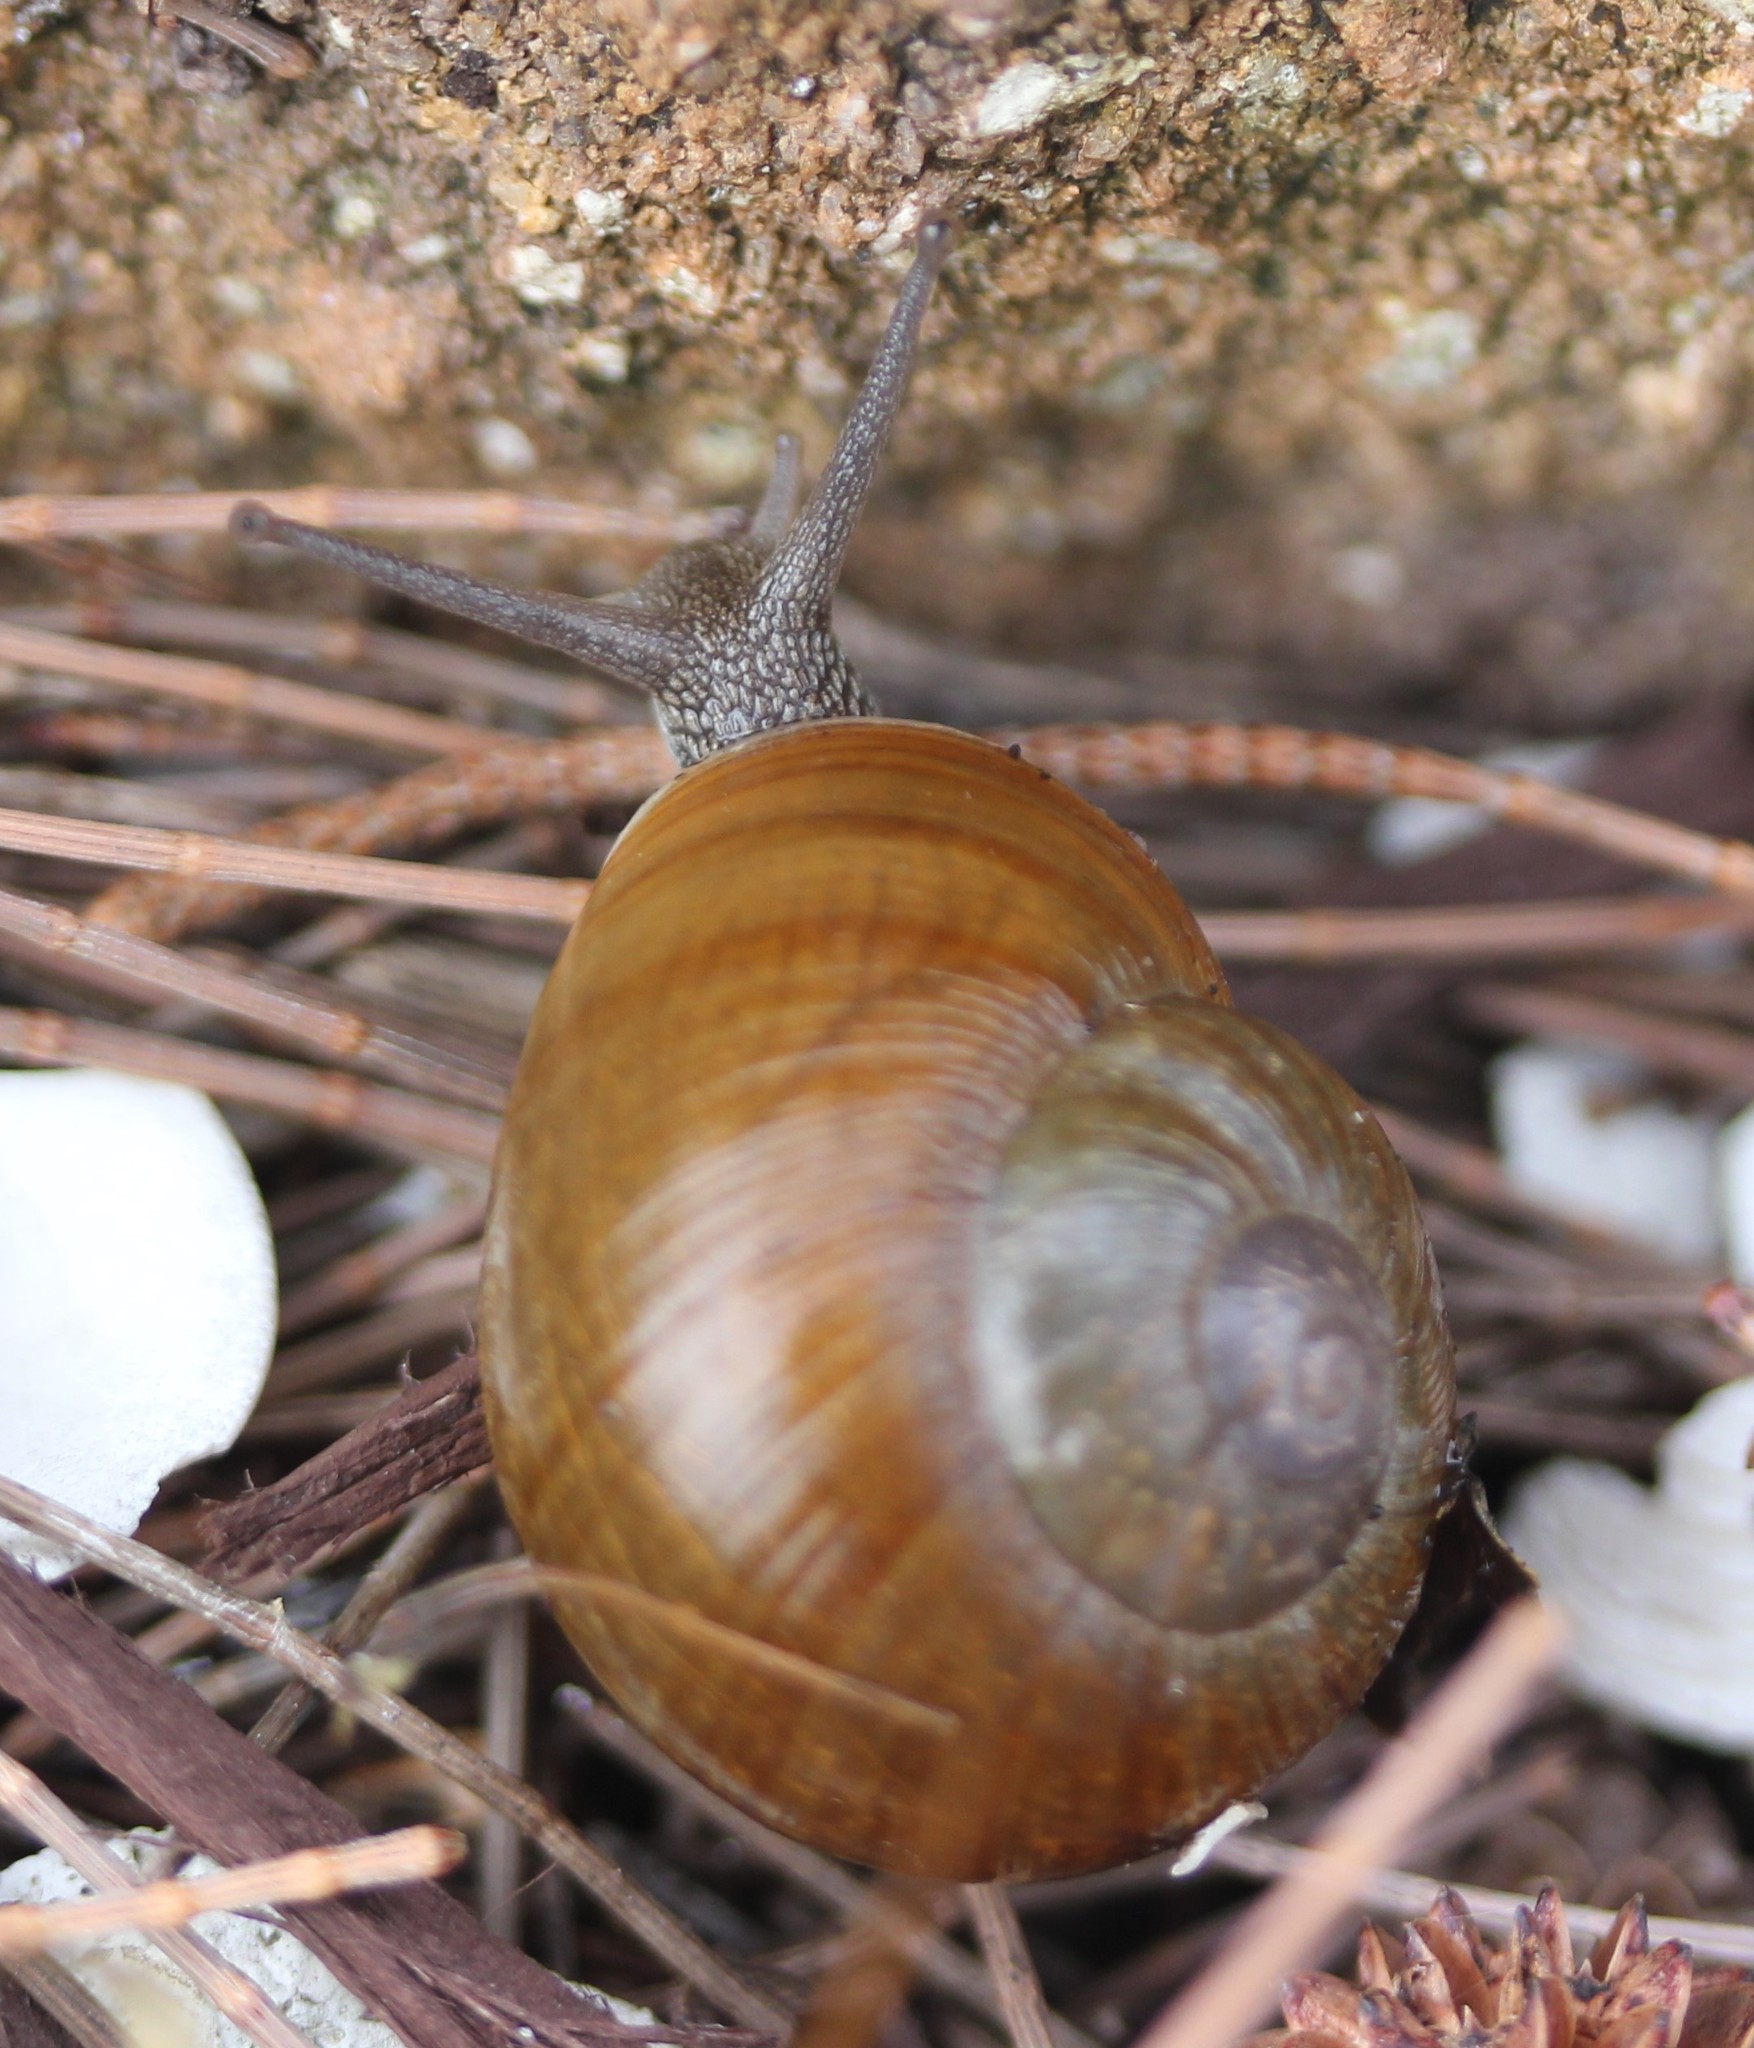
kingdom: Animalia
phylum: Mollusca
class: Gastropoda
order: Stylommatophora
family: Zachrysiidae
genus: Zachrysia
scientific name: Zachrysia provisoria
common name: Garden zachrysia
